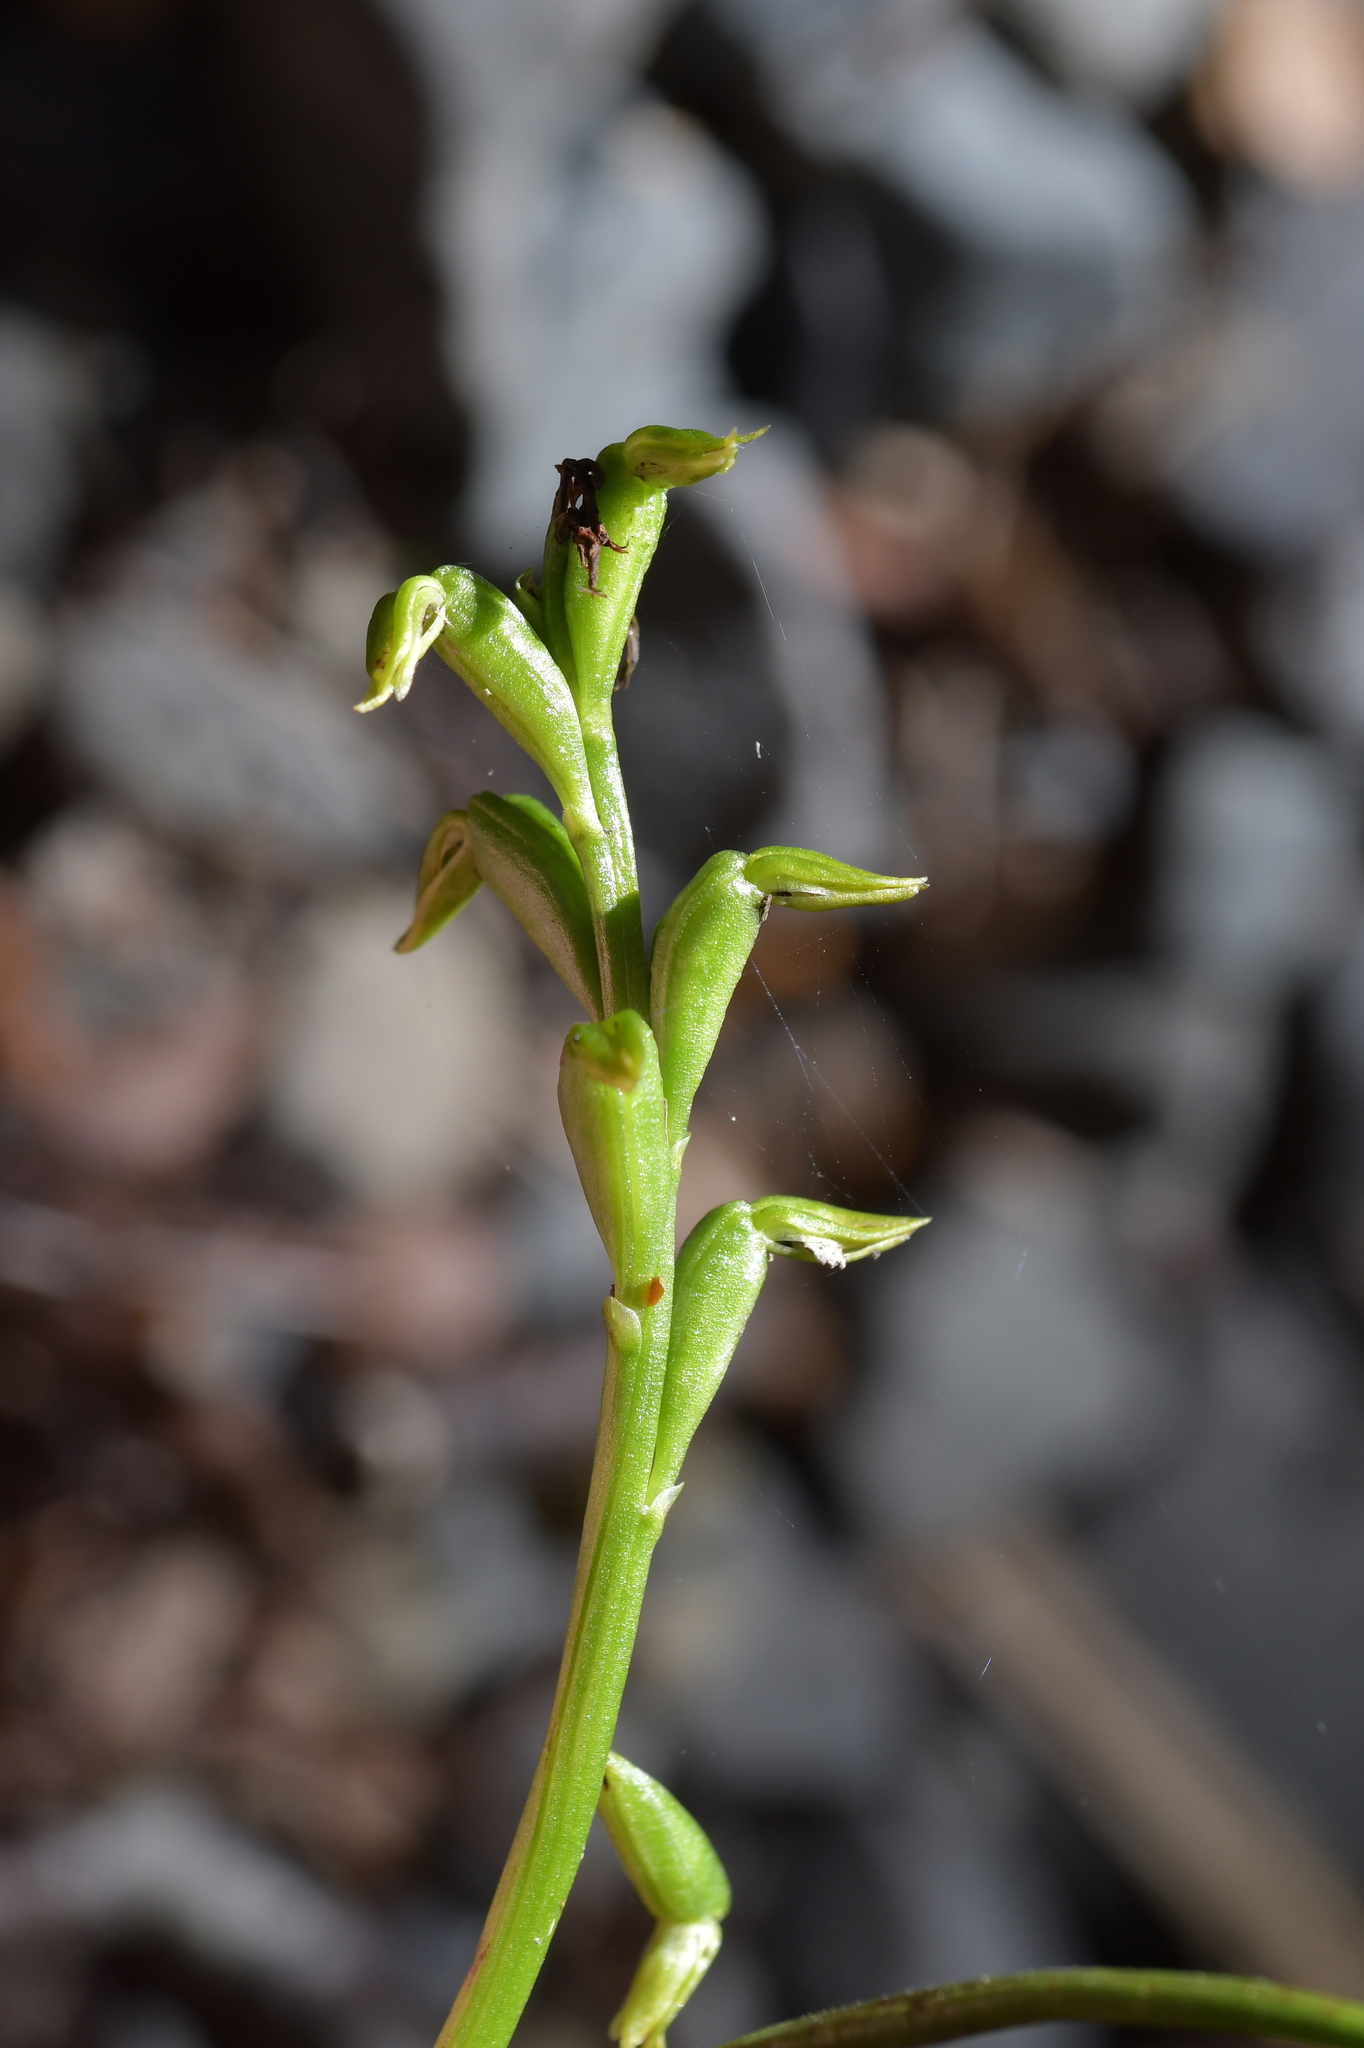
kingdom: Plantae
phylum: Tracheophyta
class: Liliopsida
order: Asparagales
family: Orchidaceae
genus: Prasophyllum
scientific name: Prasophyllum colensoi
